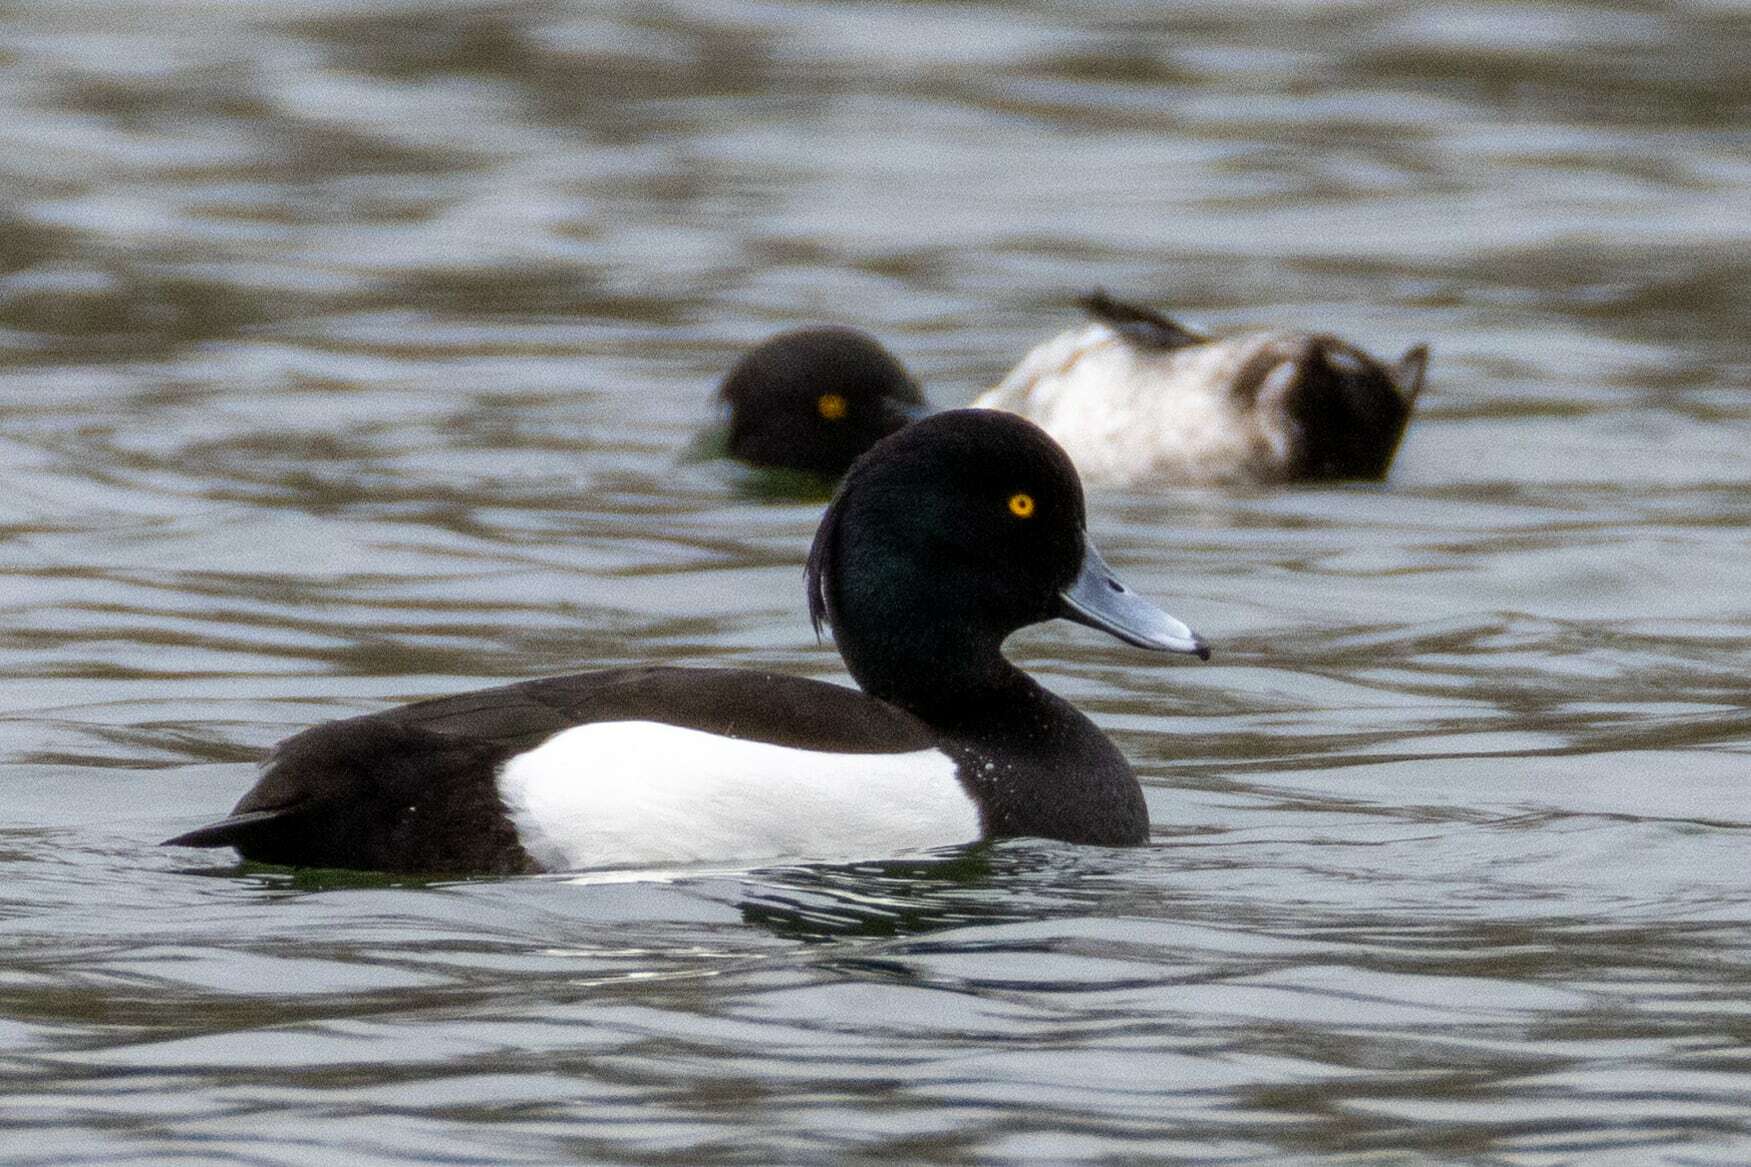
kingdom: Animalia
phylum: Chordata
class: Aves
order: Anseriformes
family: Anatidae
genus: Aythya
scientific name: Aythya fuligula
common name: Tufted duck
